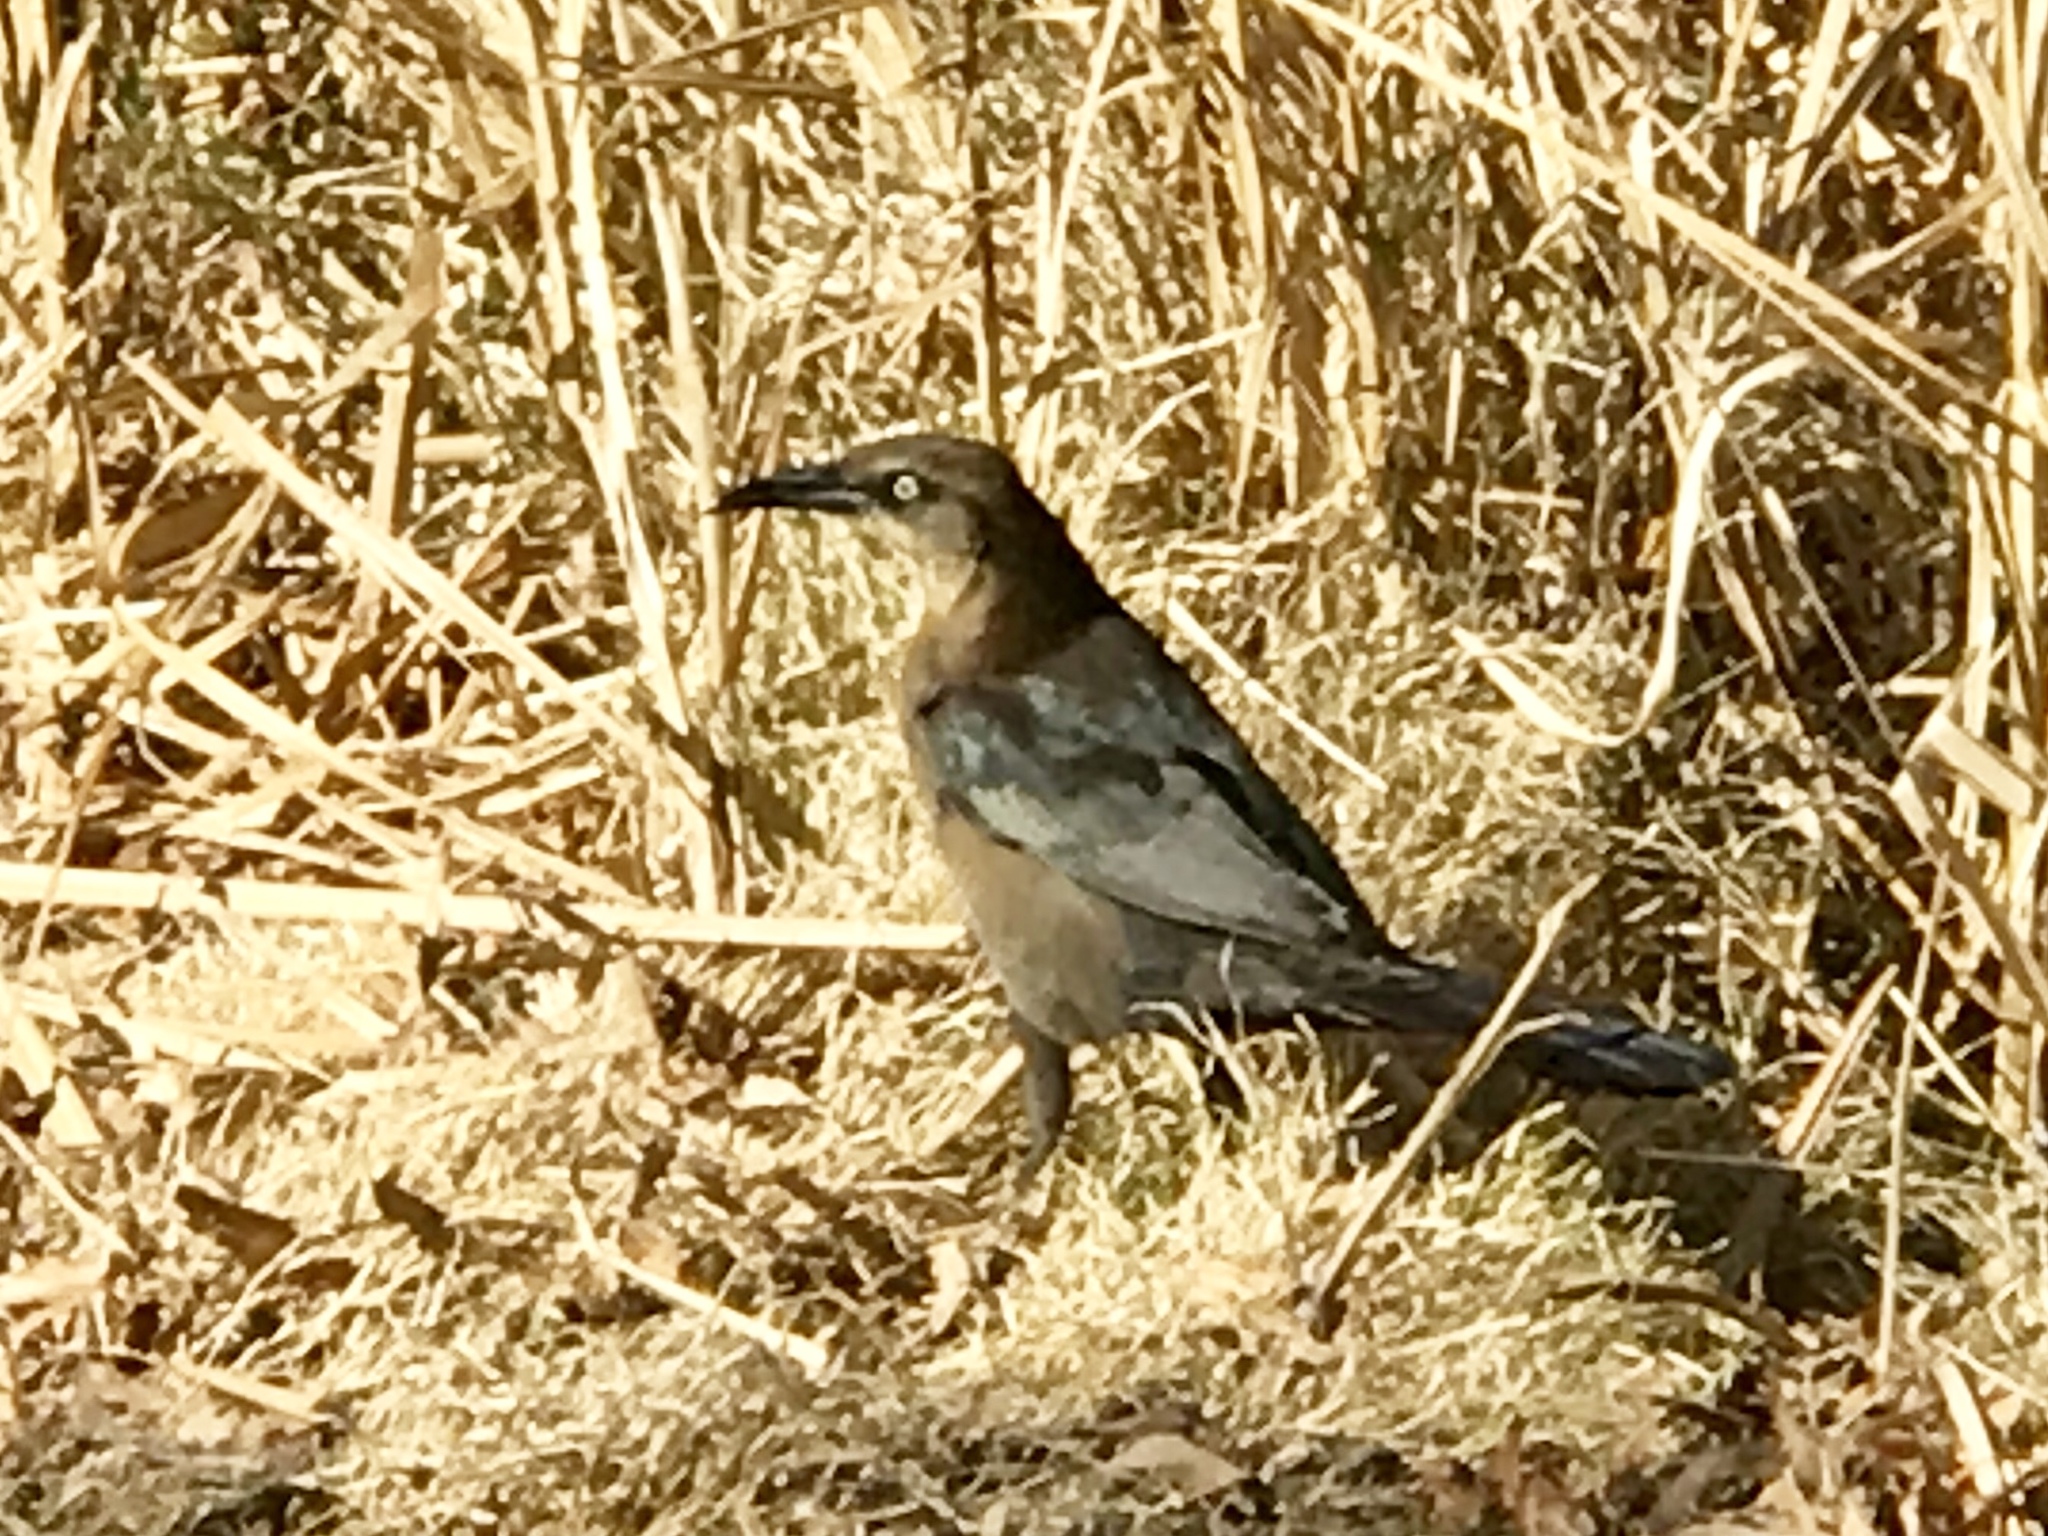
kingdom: Animalia
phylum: Chordata
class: Aves
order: Passeriformes
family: Icteridae
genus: Quiscalus
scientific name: Quiscalus mexicanus
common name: Great-tailed grackle
